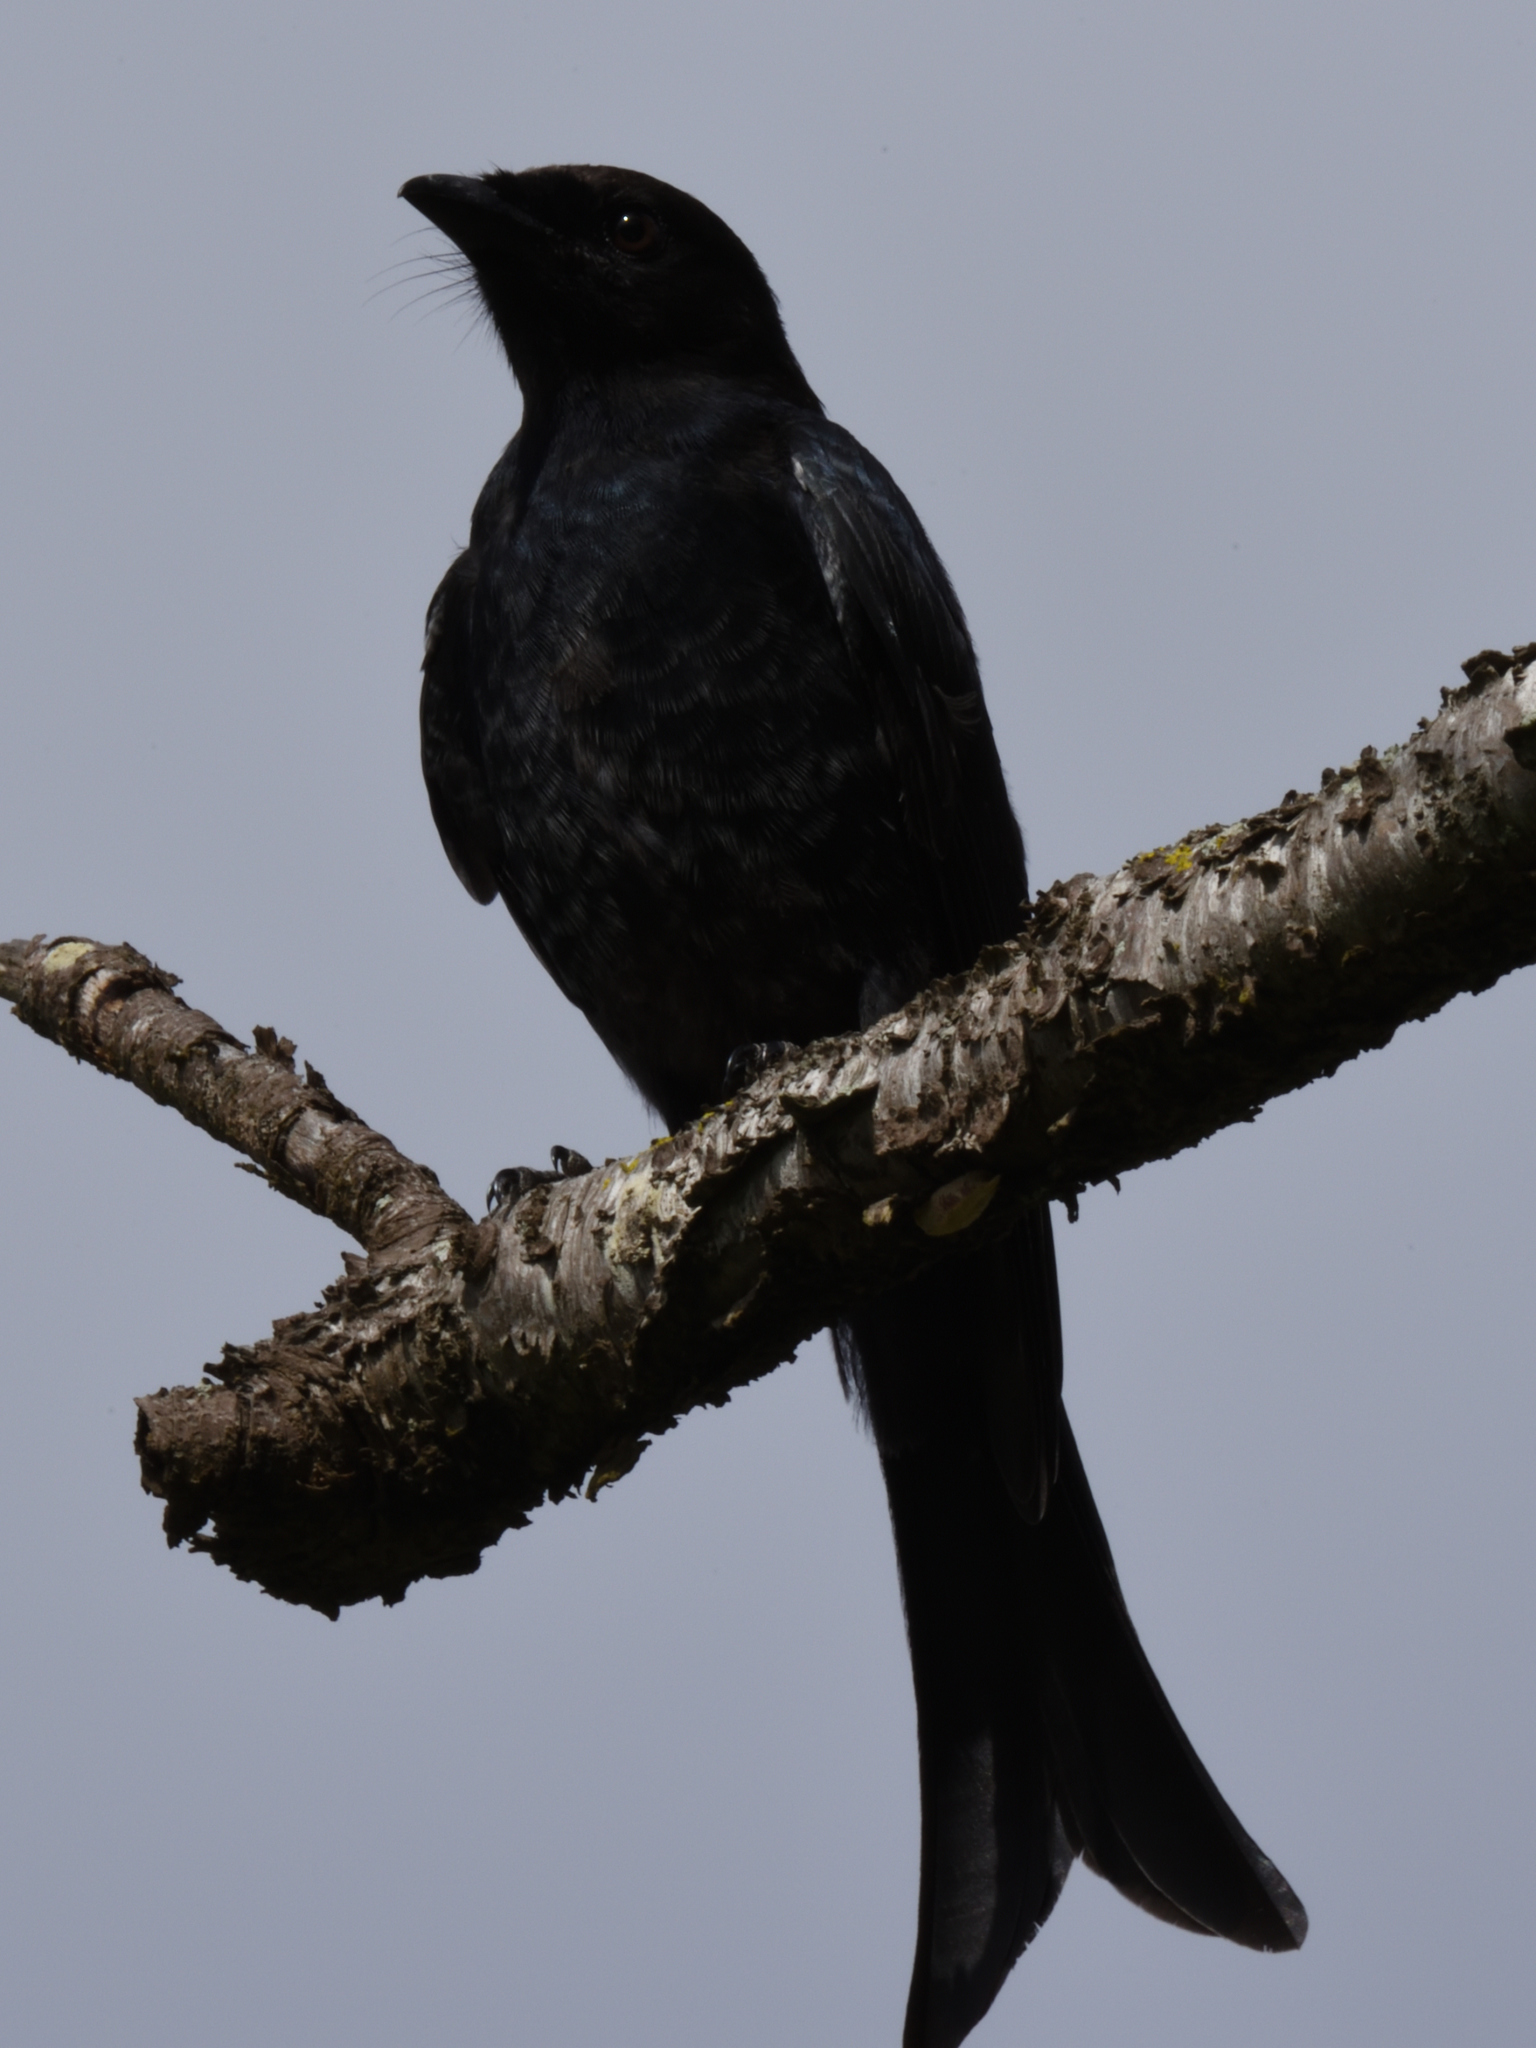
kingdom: Animalia
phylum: Chordata
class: Aves
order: Passeriformes
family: Dicruridae
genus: Dicrurus
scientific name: Dicrurus adsimilis
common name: Fork-tailed drongo
